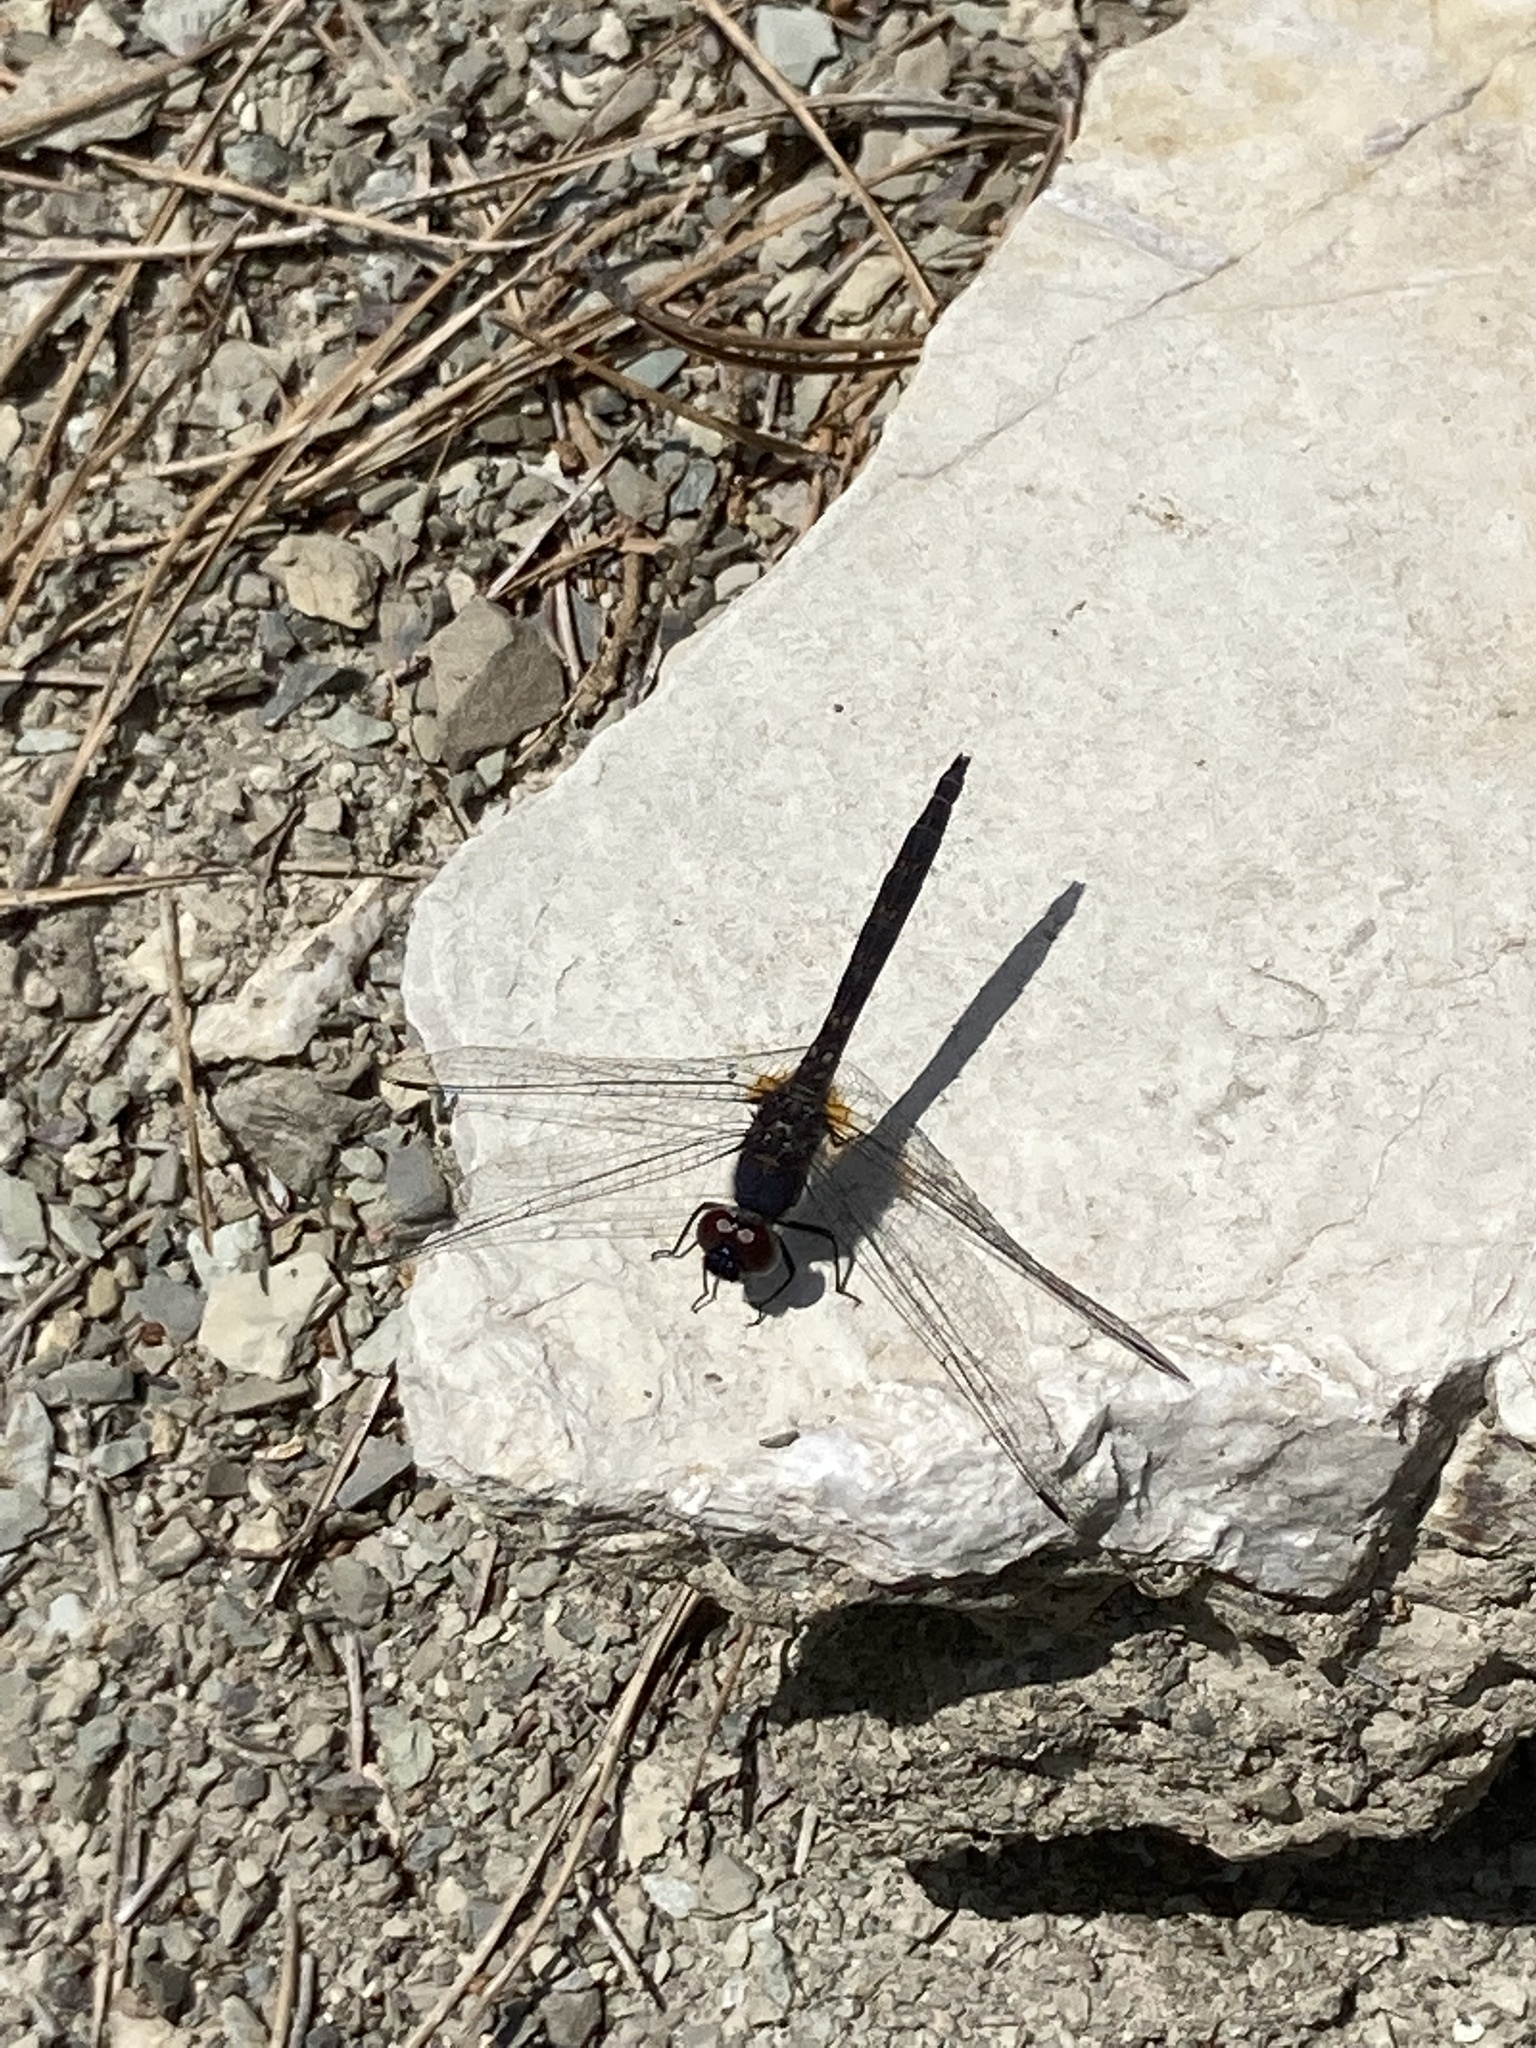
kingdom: Animalia
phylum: Arthropoda
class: Insecta
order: Odonata
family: Libellulidae
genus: Trithemis
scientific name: Trithemis festiva
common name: Indigo dropwing
